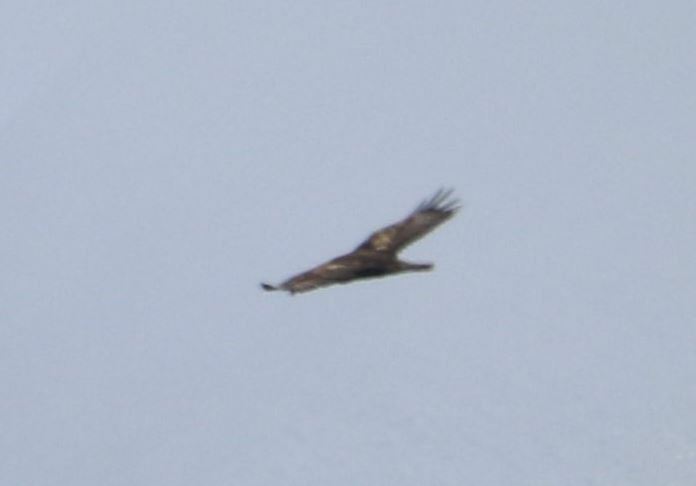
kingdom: Animalia
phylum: Chordata
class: Aves
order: Accipitriformes
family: Accipitridae
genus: Aquila
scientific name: Aquila chrysaetos
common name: Golden eagle
